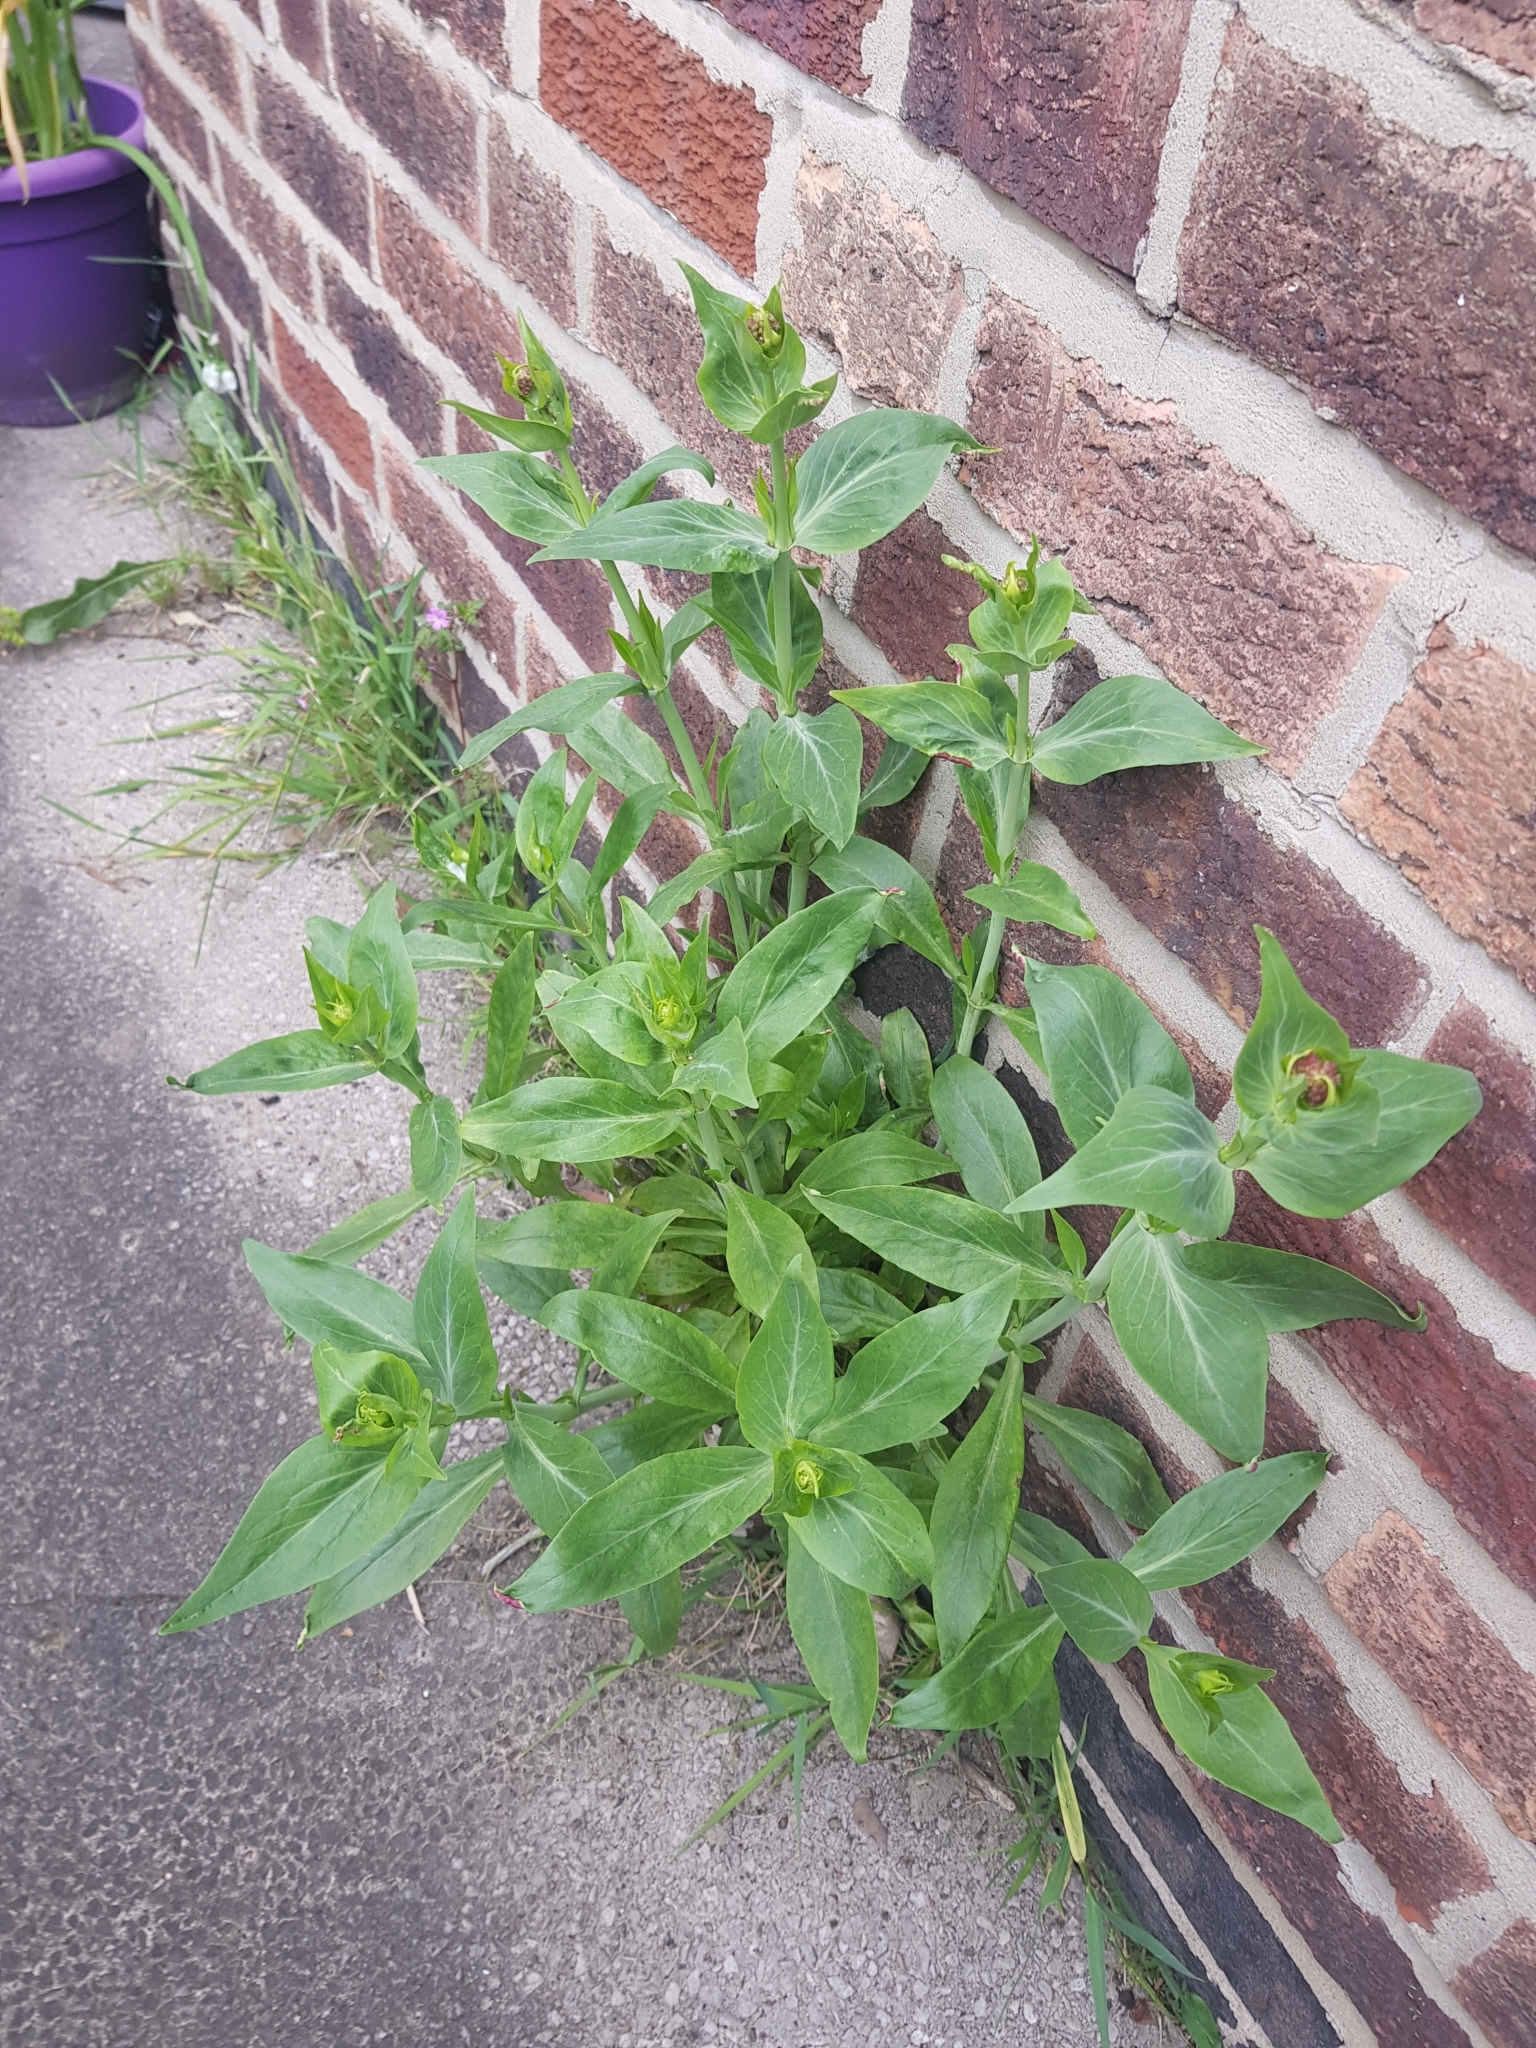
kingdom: Plantae
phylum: Tracheophyta
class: Magnoliopsida
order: Dipsacales
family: Caprifoliaceae
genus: Centranthus
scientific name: Centranthus ruber
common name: Red valerian
